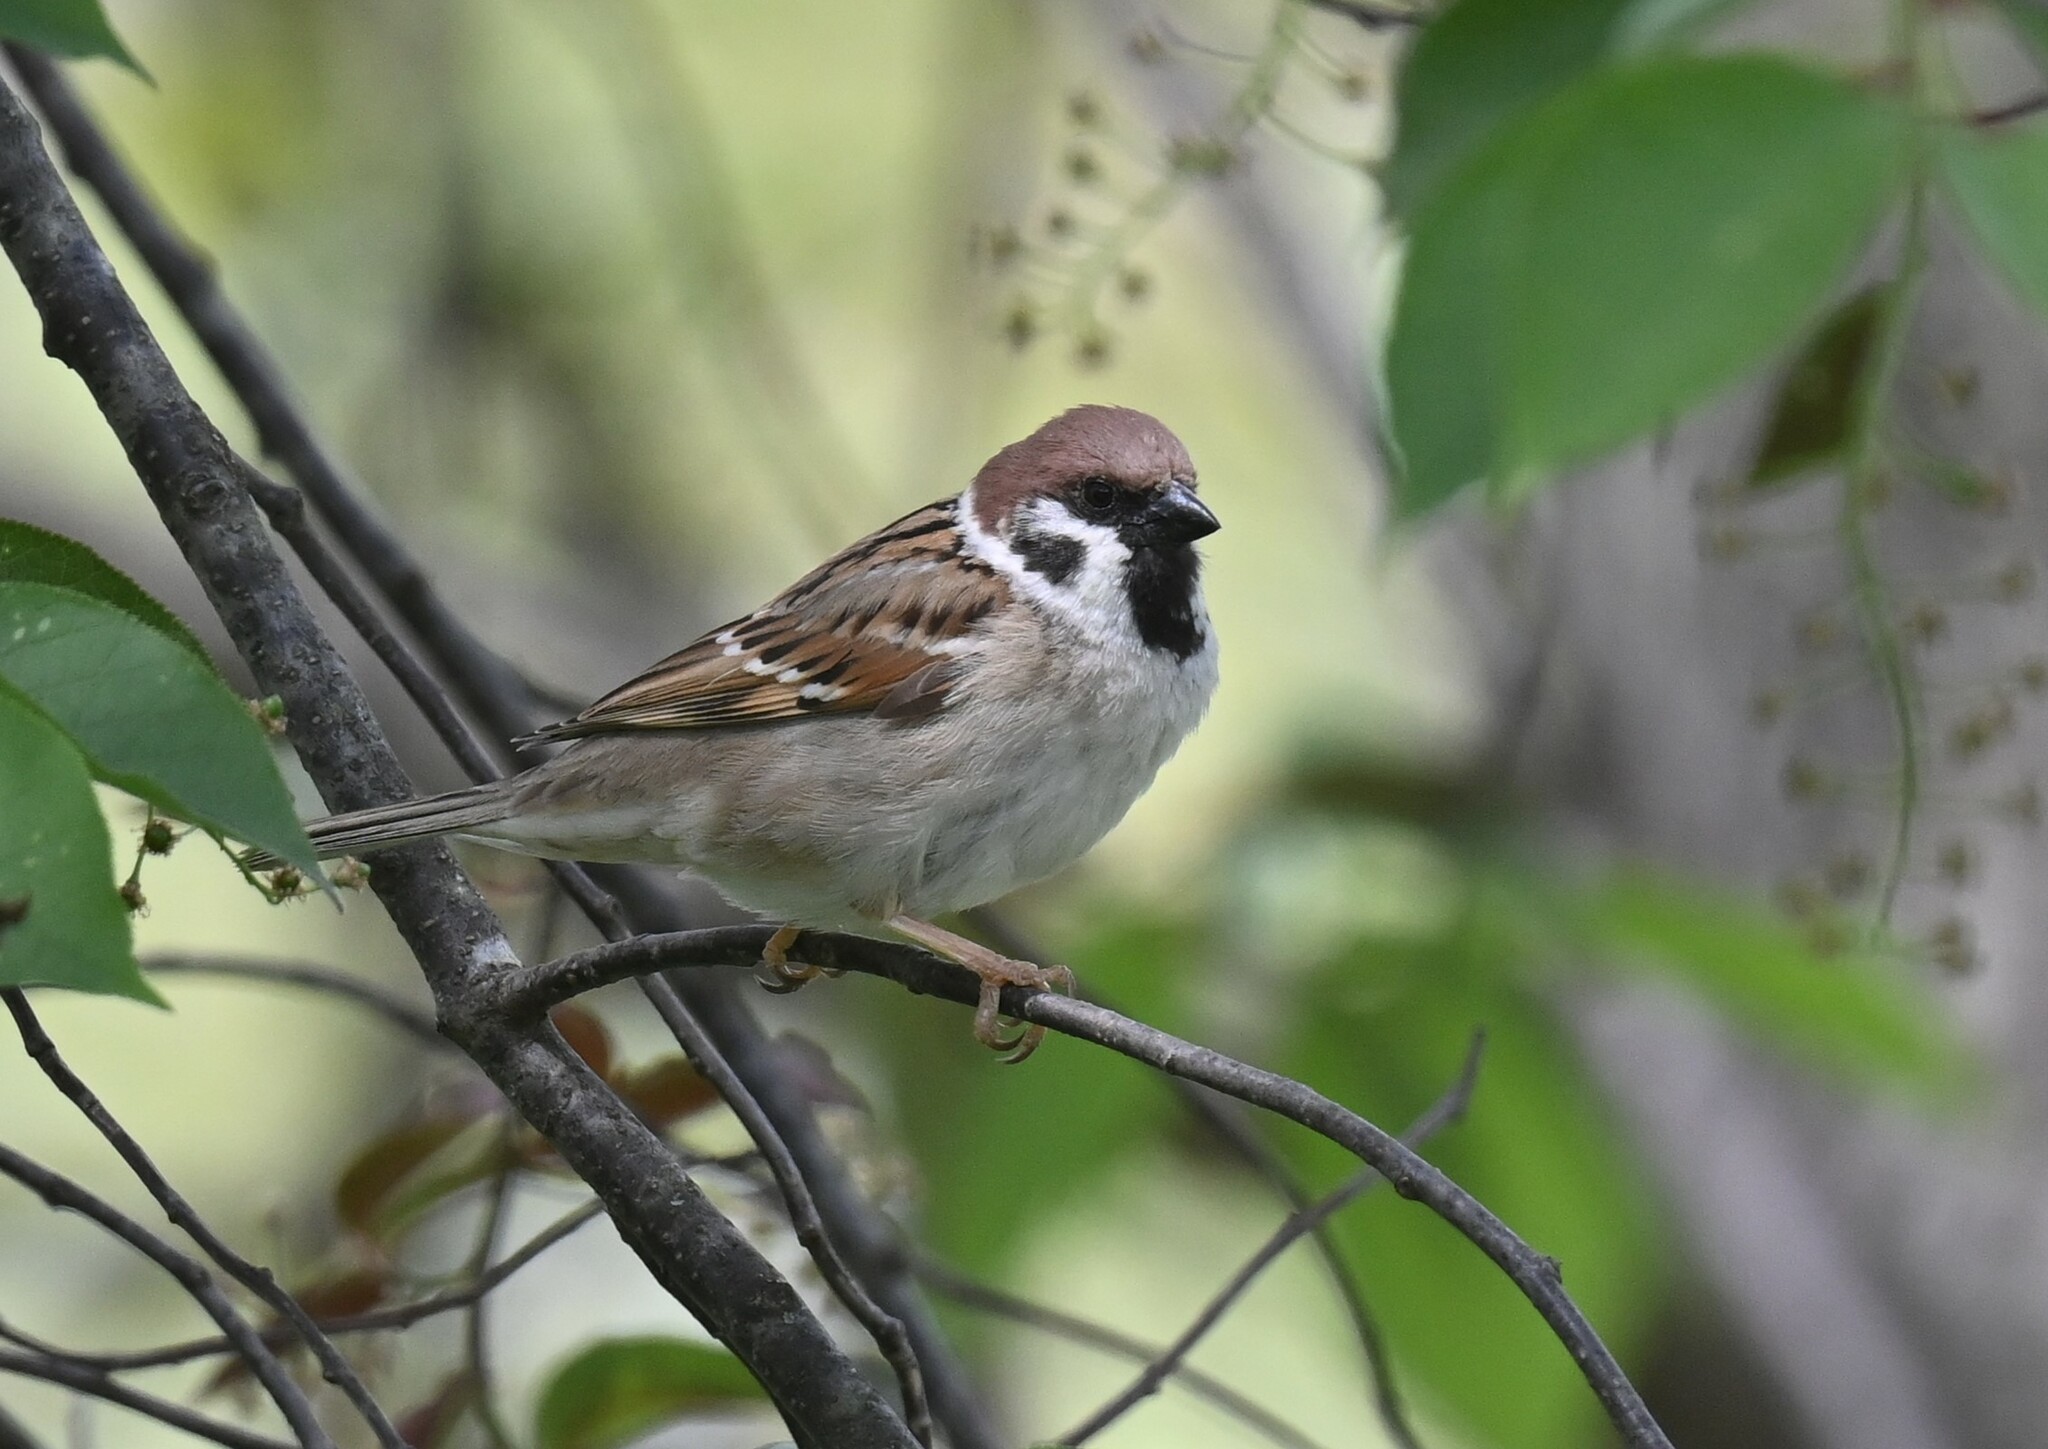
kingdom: Animalia
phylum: Chordata
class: Aves
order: Passeriformes
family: Passeridae
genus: Passer
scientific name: Passer montanus
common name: Eurasian tree sparrow
